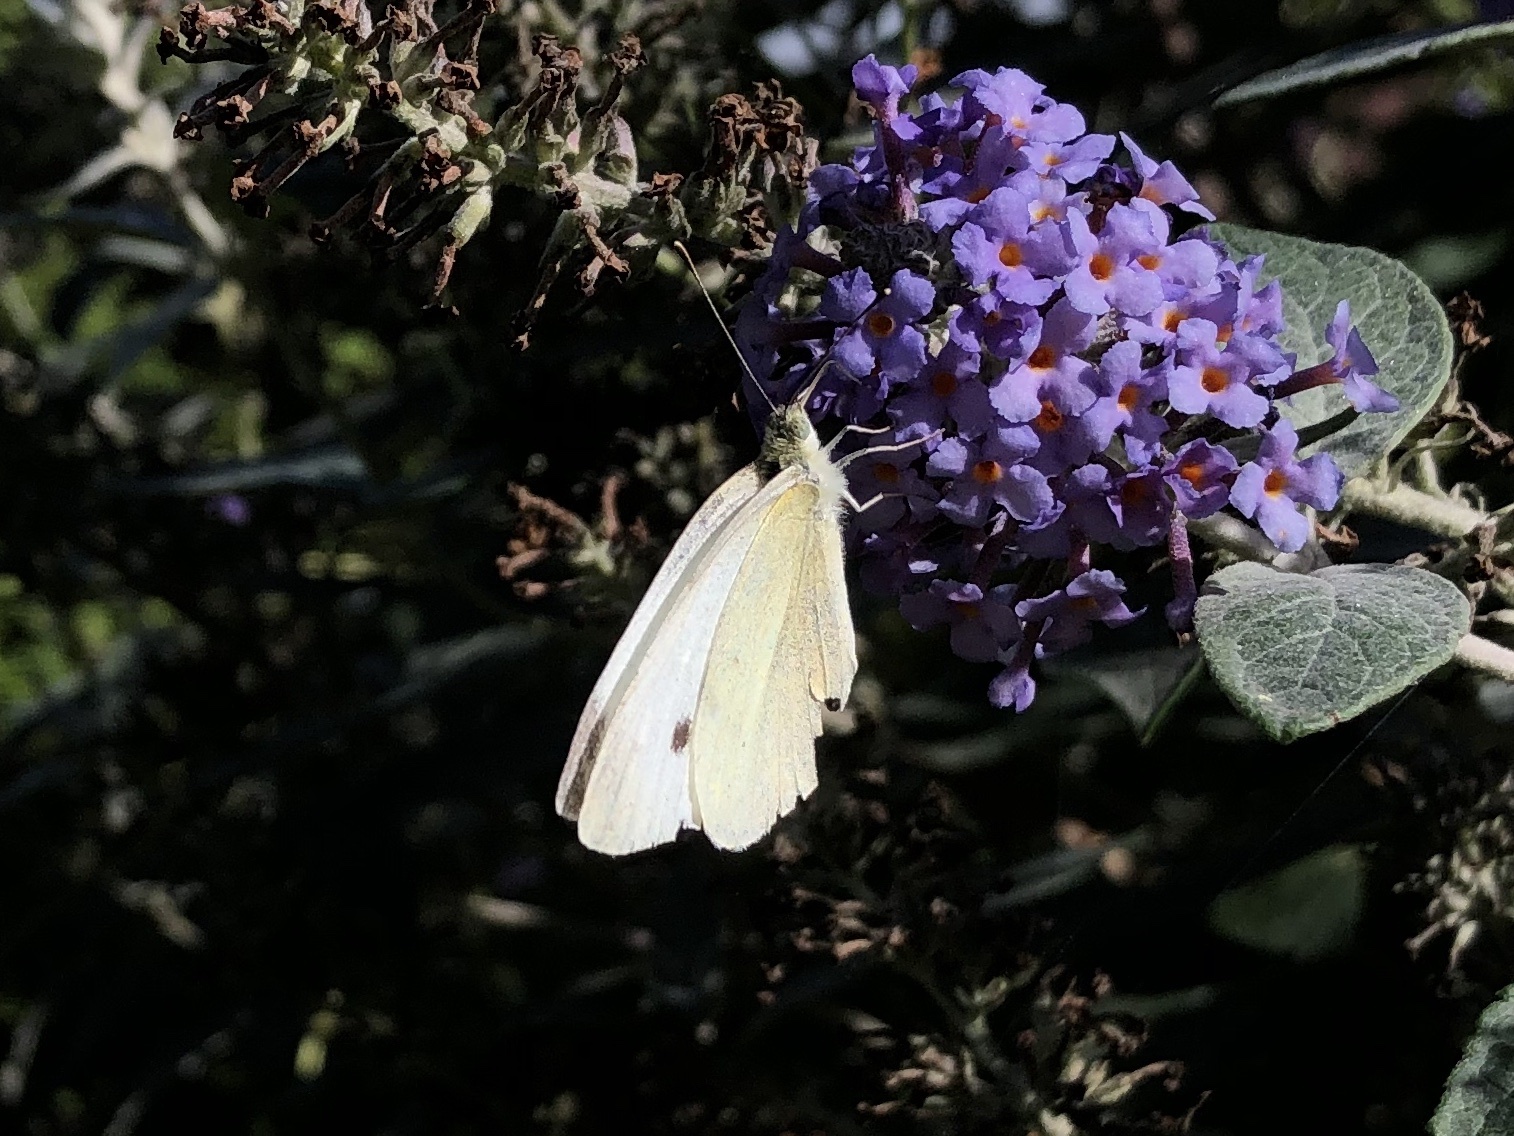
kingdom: Animalia
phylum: Arthropoda
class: Insecta
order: Lepidoptera
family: Pieridae
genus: Pieris
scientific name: Pieris rapae
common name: Small white
